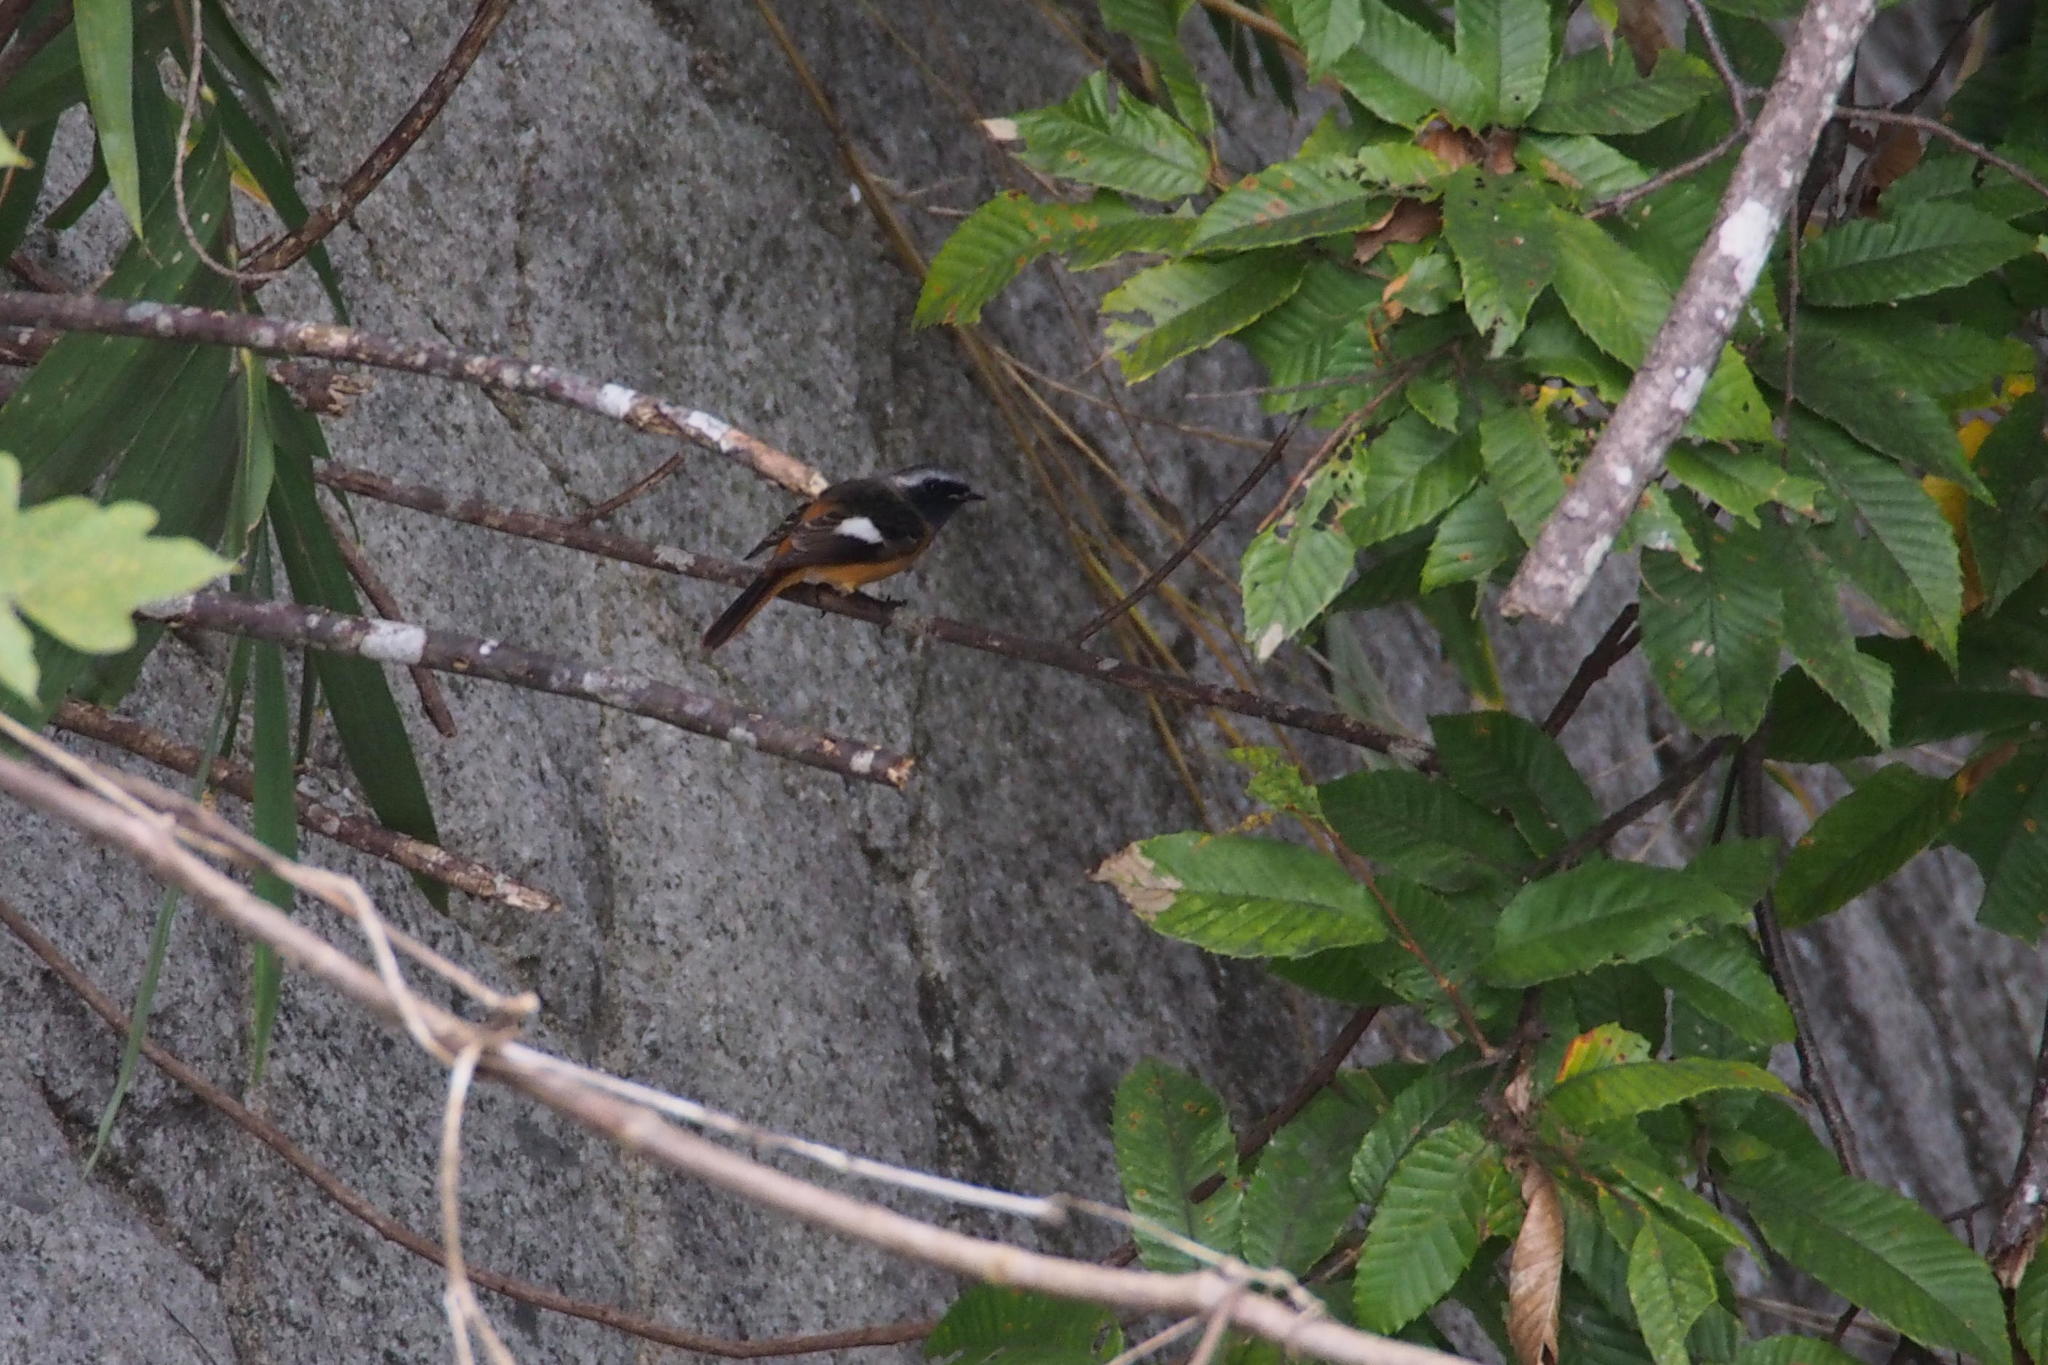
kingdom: Animalia
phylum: Chordata
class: Aves
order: Passeriformes
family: Muscicapidae
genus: Phoenicurus
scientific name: Phoenicurus auroreus
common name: Daurian redstart
